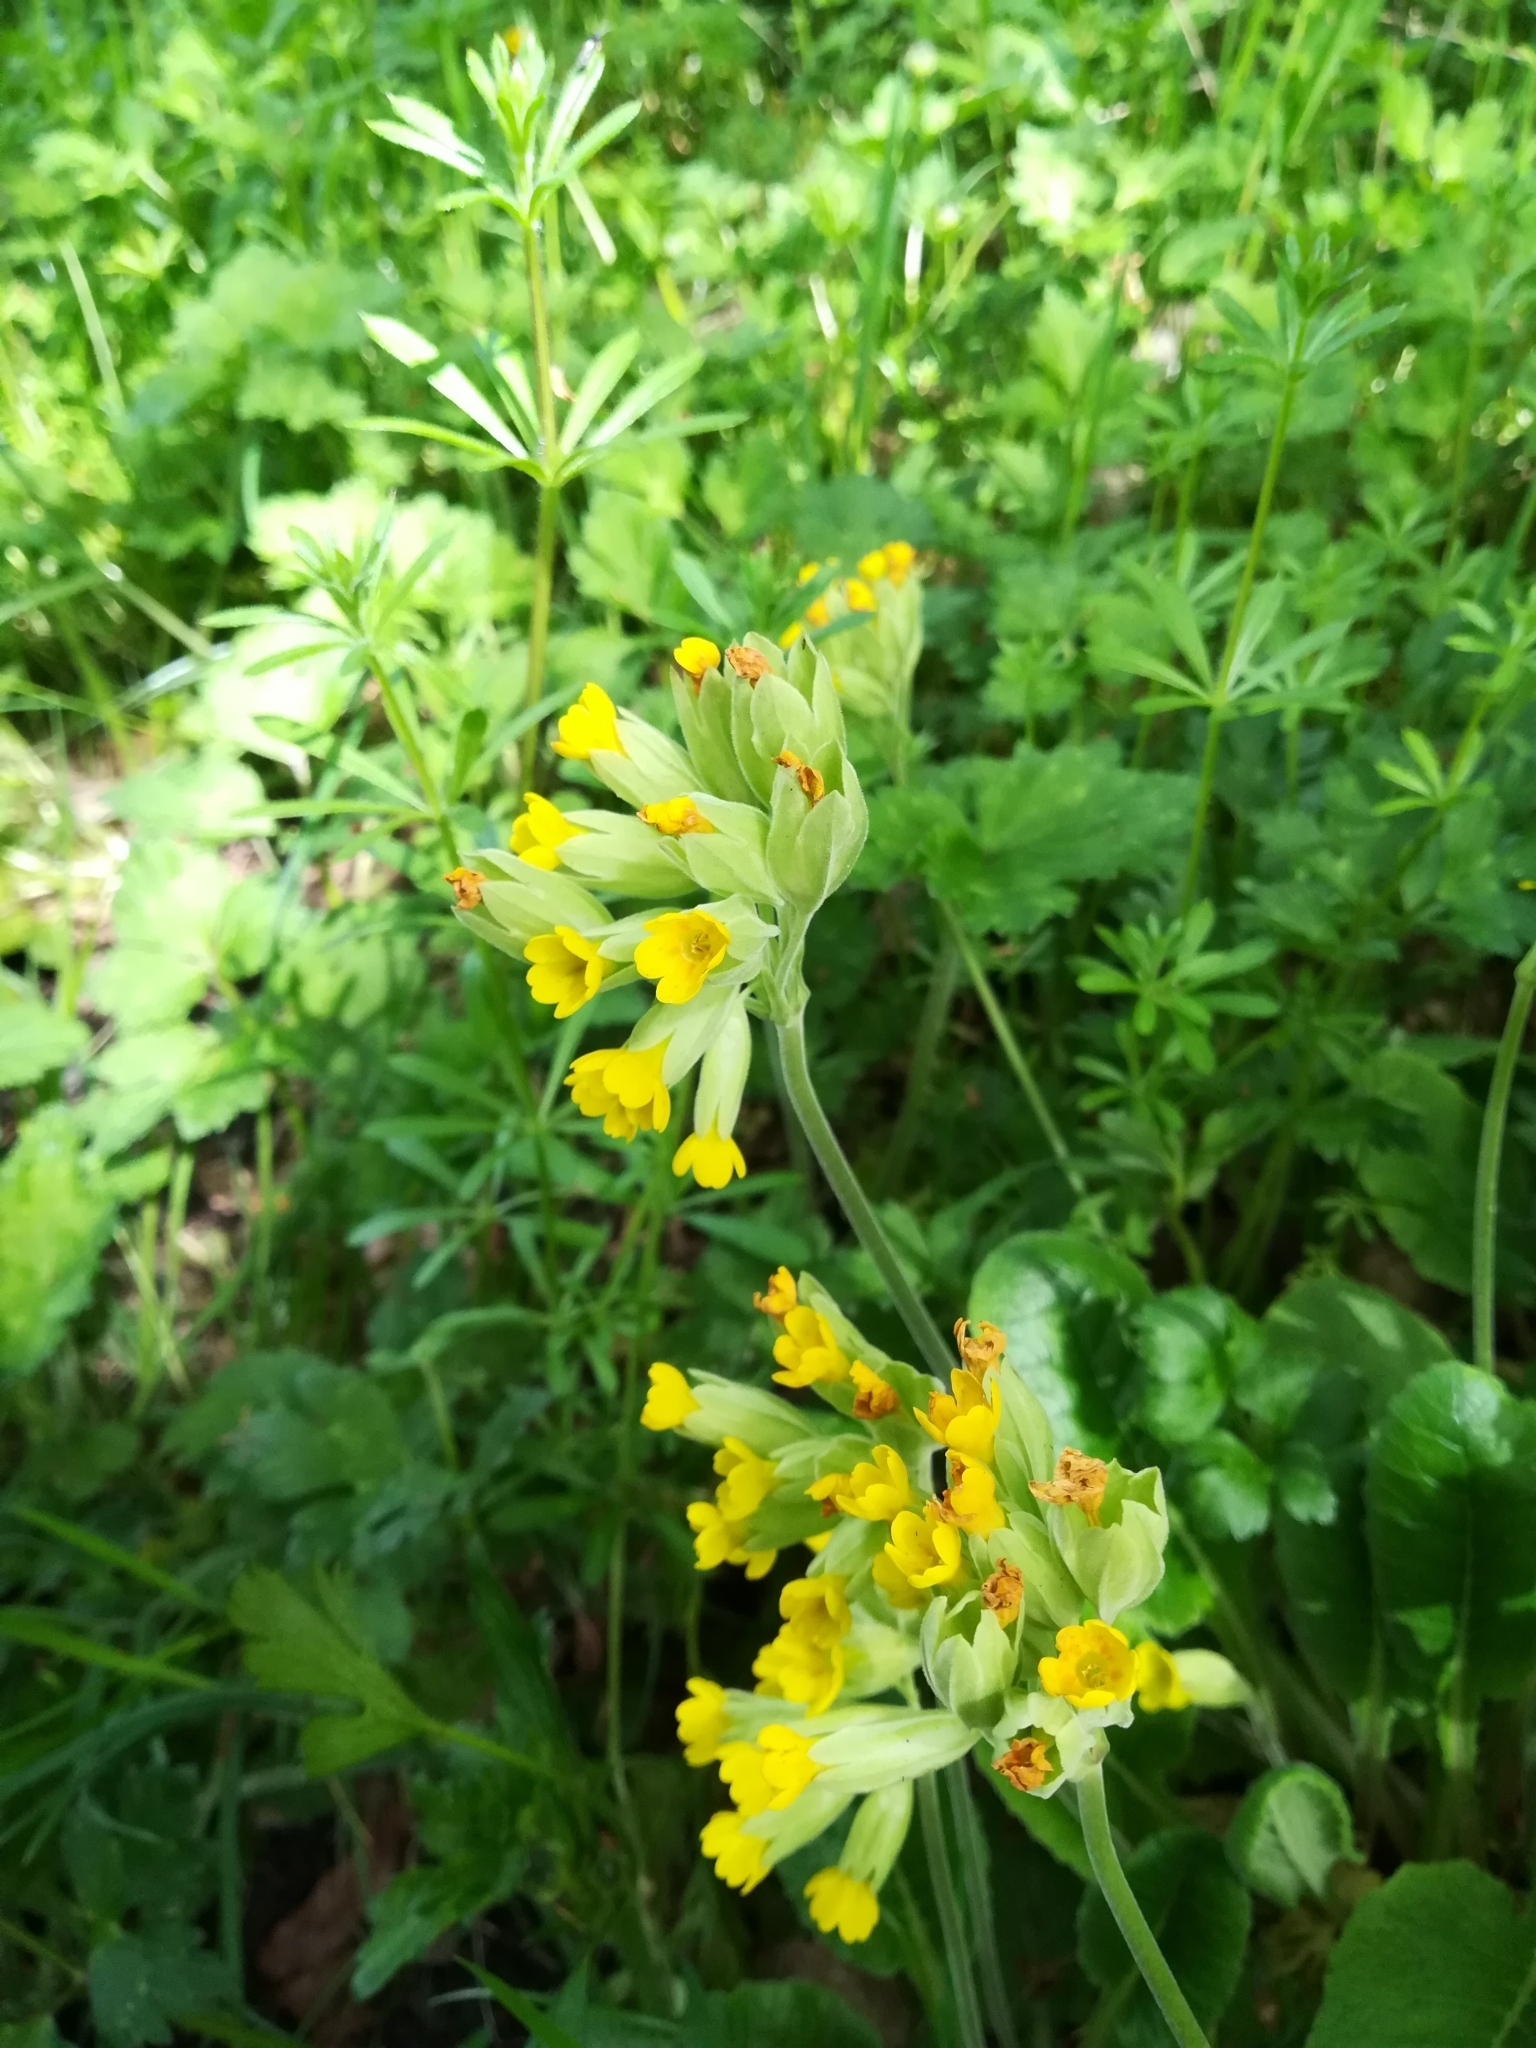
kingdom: Plantae
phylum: Tracheophyta
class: Magnoliopsida
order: Ericales
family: Primulaceae
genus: Primula
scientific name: Primula veris
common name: Cowslip
